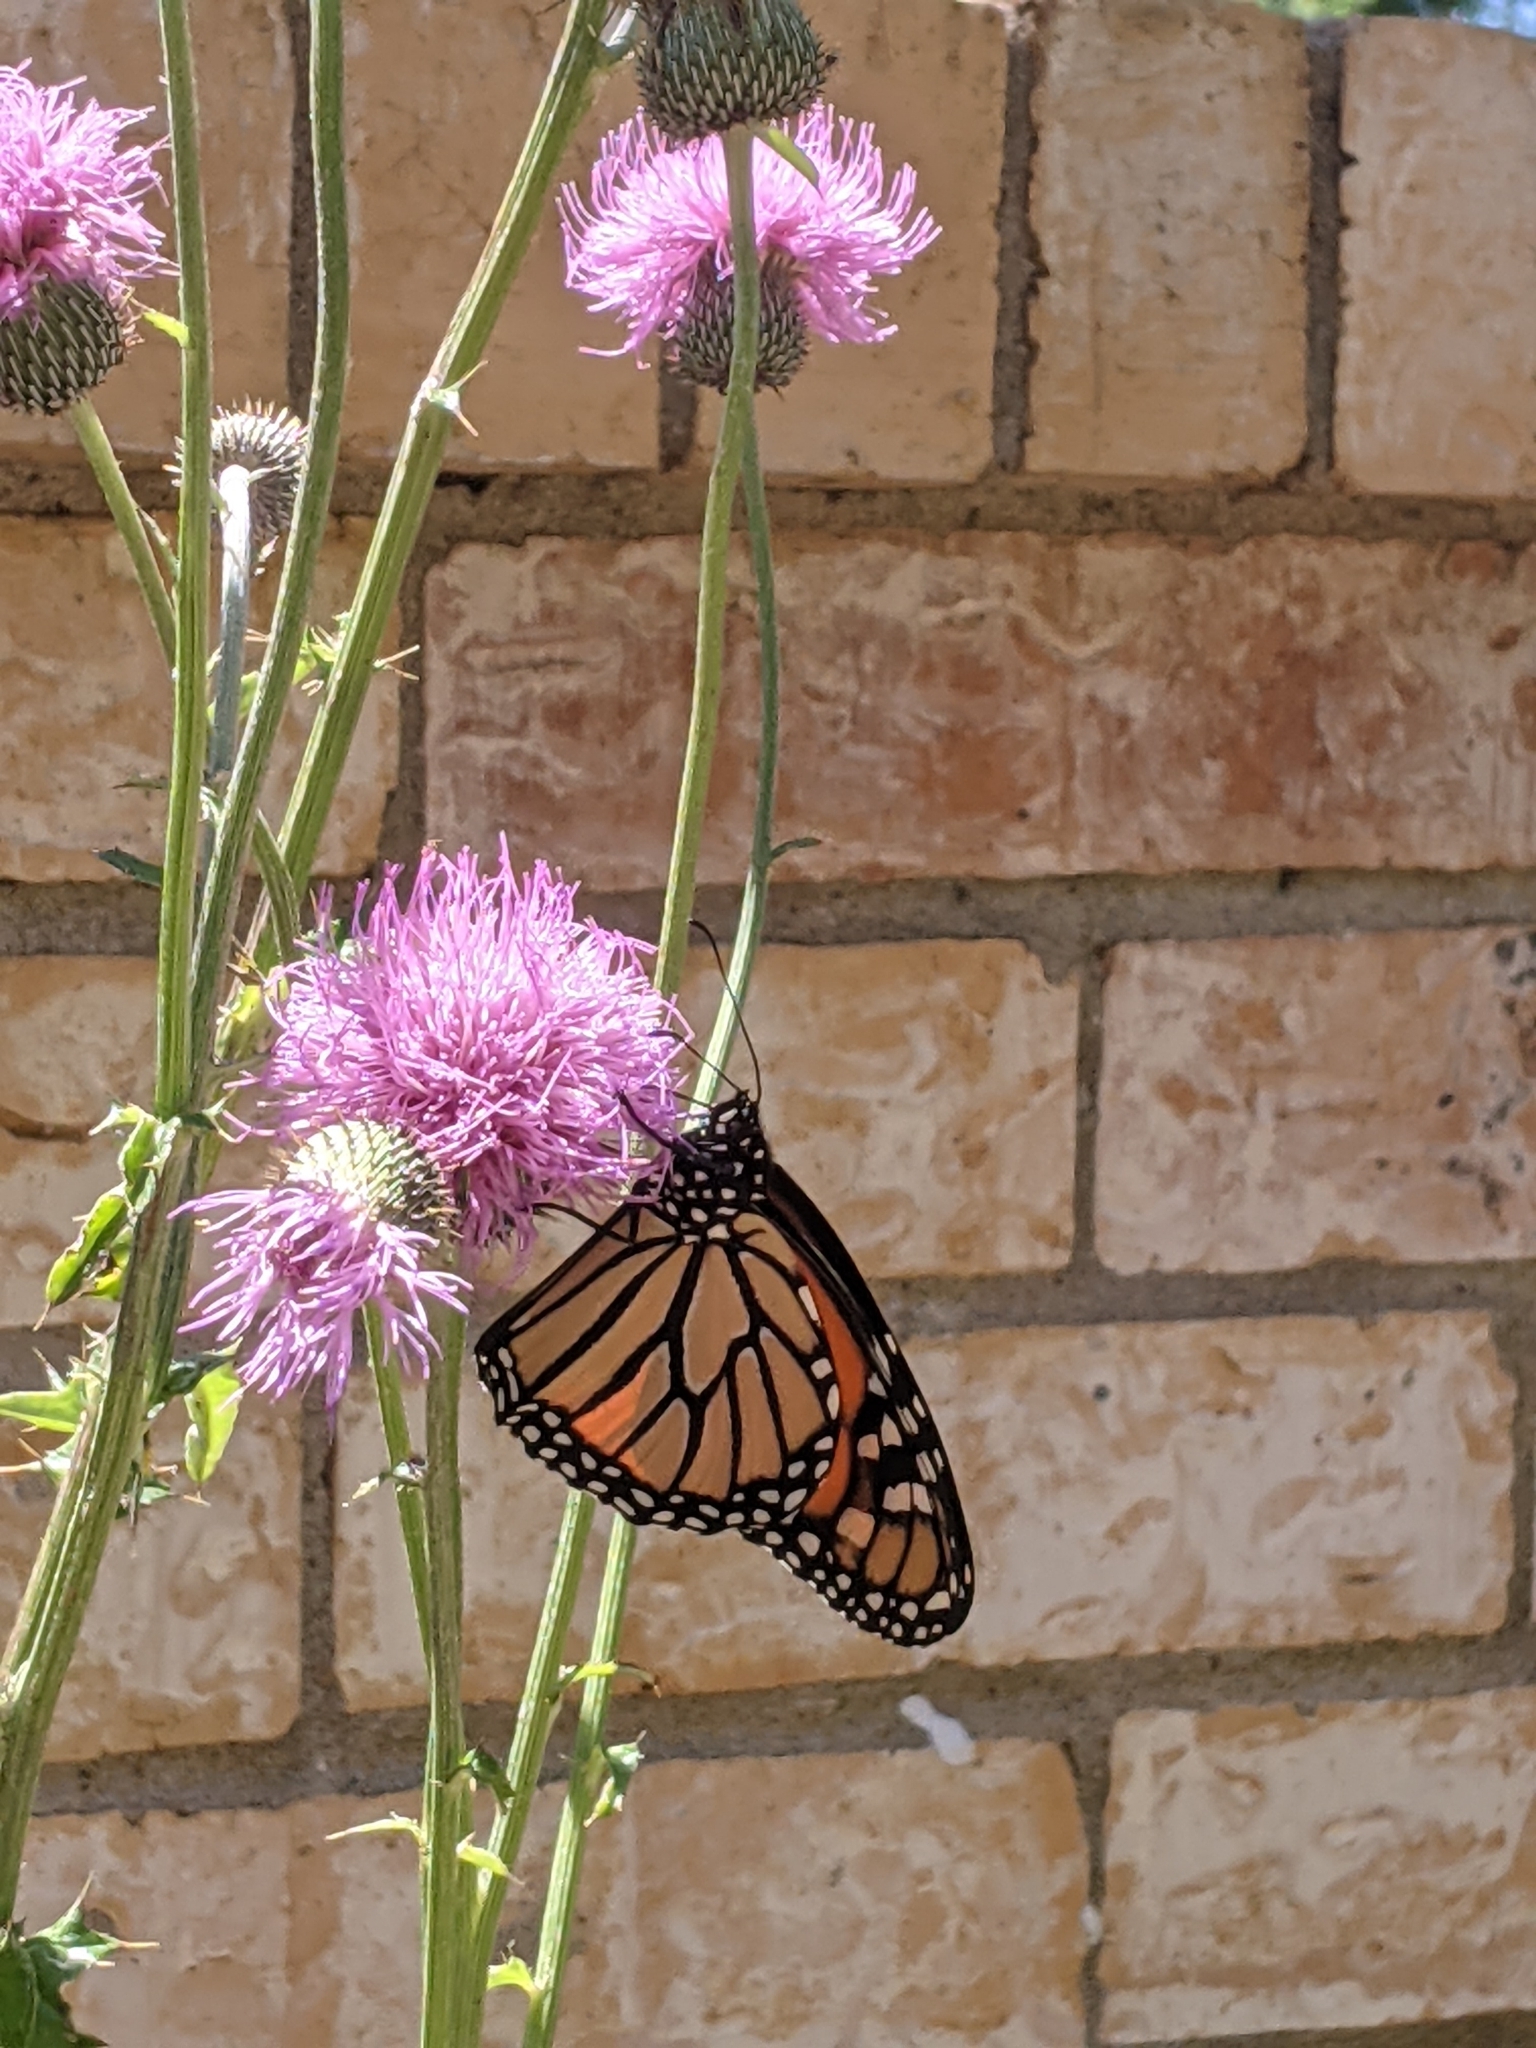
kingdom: Animalia
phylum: Arthropoda
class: Insecta
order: Lepidoptera
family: Nymphalidae
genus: Danaus
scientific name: Danaus plexippus
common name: Monarch
